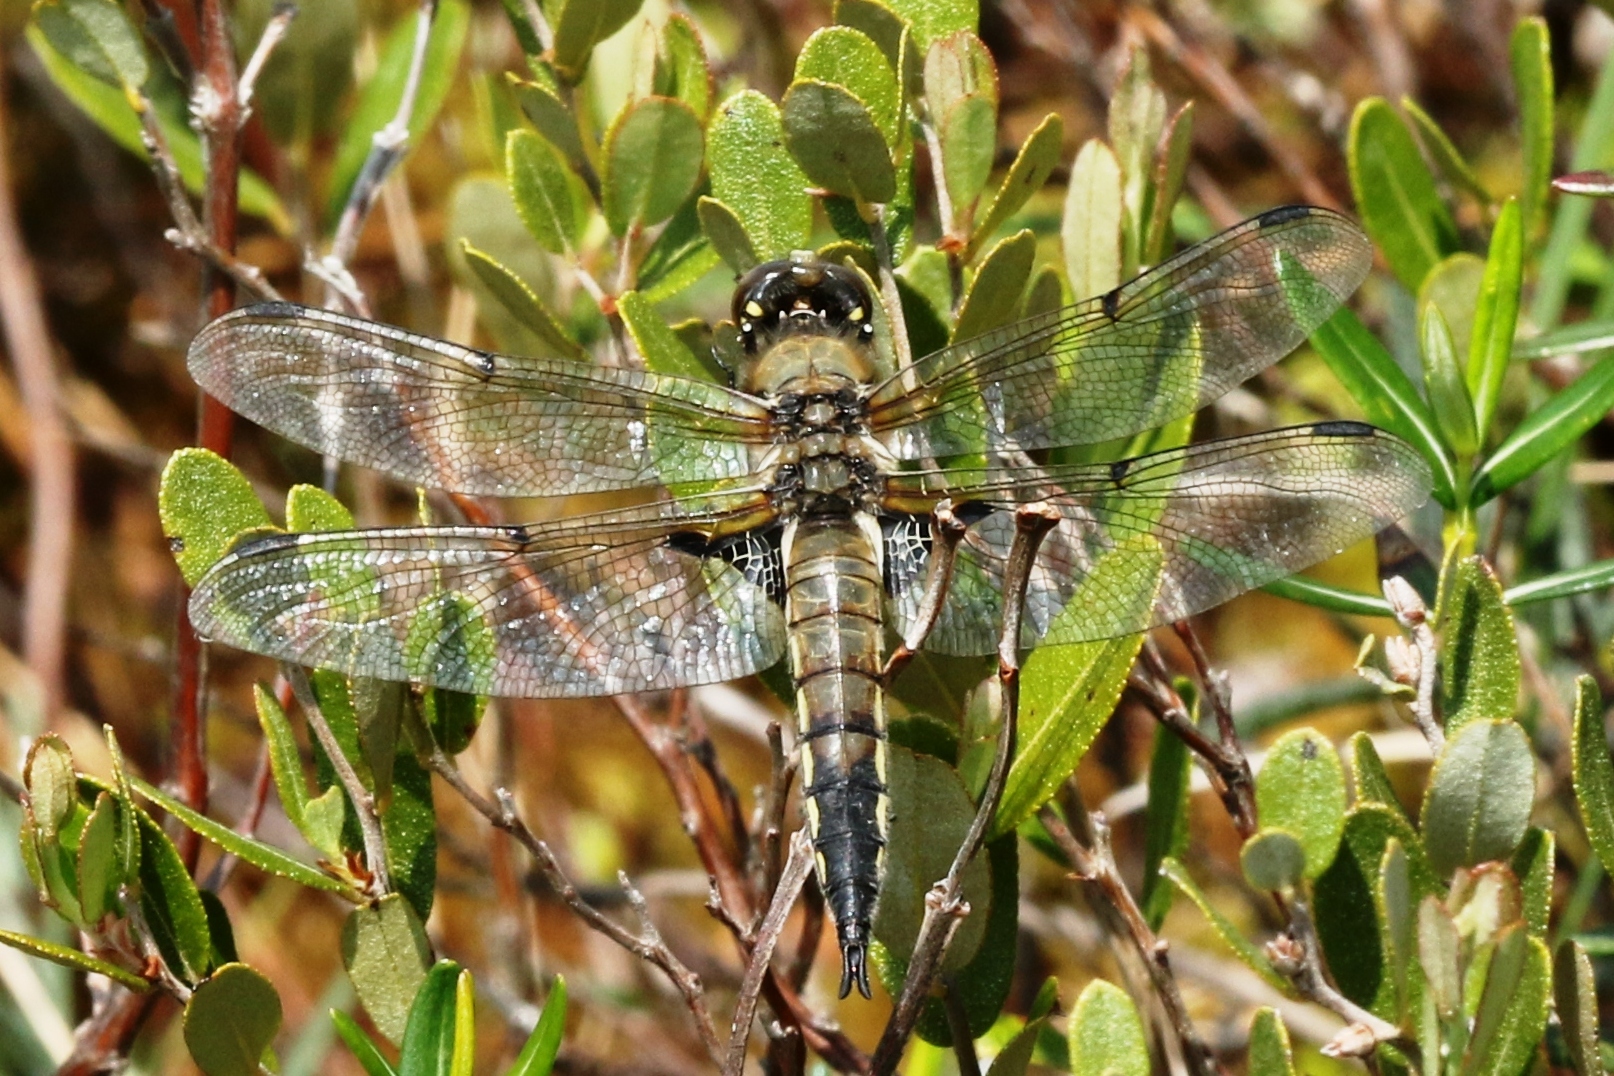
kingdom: Animalia
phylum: Arthropoda
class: Insecta
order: Odonata
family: Libellulidae
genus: Libellula
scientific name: Libellula quadrimaculata
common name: Four-spotted chaser
